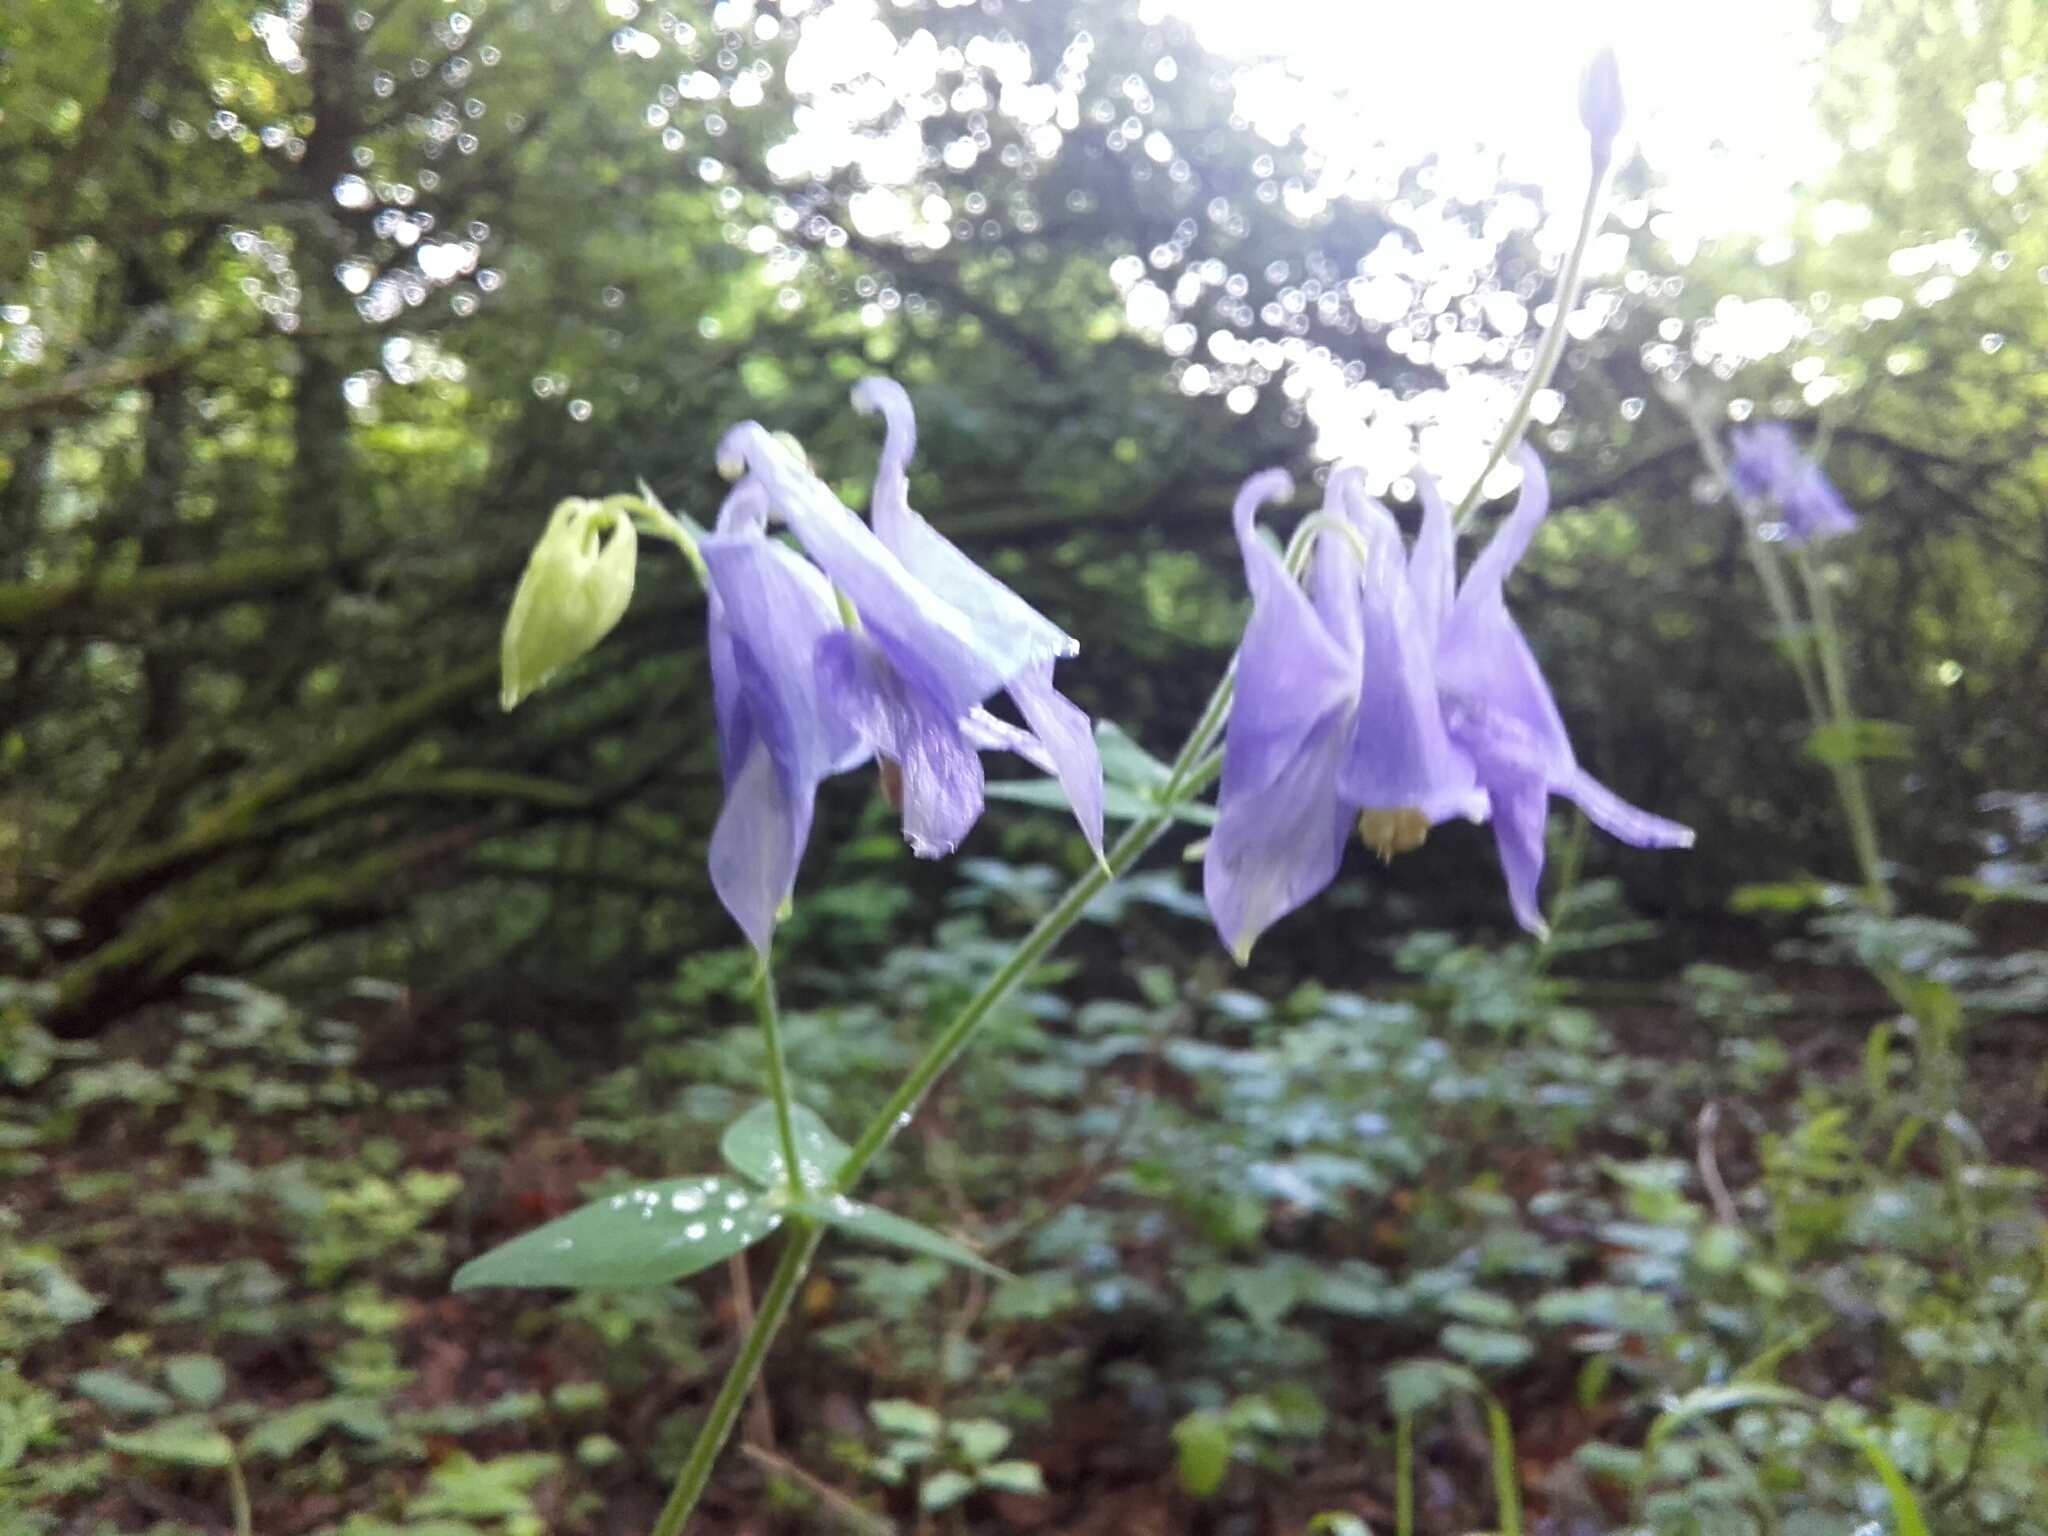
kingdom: Plantae
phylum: Tracheophyta
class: Magnoliopsida
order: Ranunculales
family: Ranunculaceae
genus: Aquilegia
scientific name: Aquilegia vulgaris
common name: Columbine
